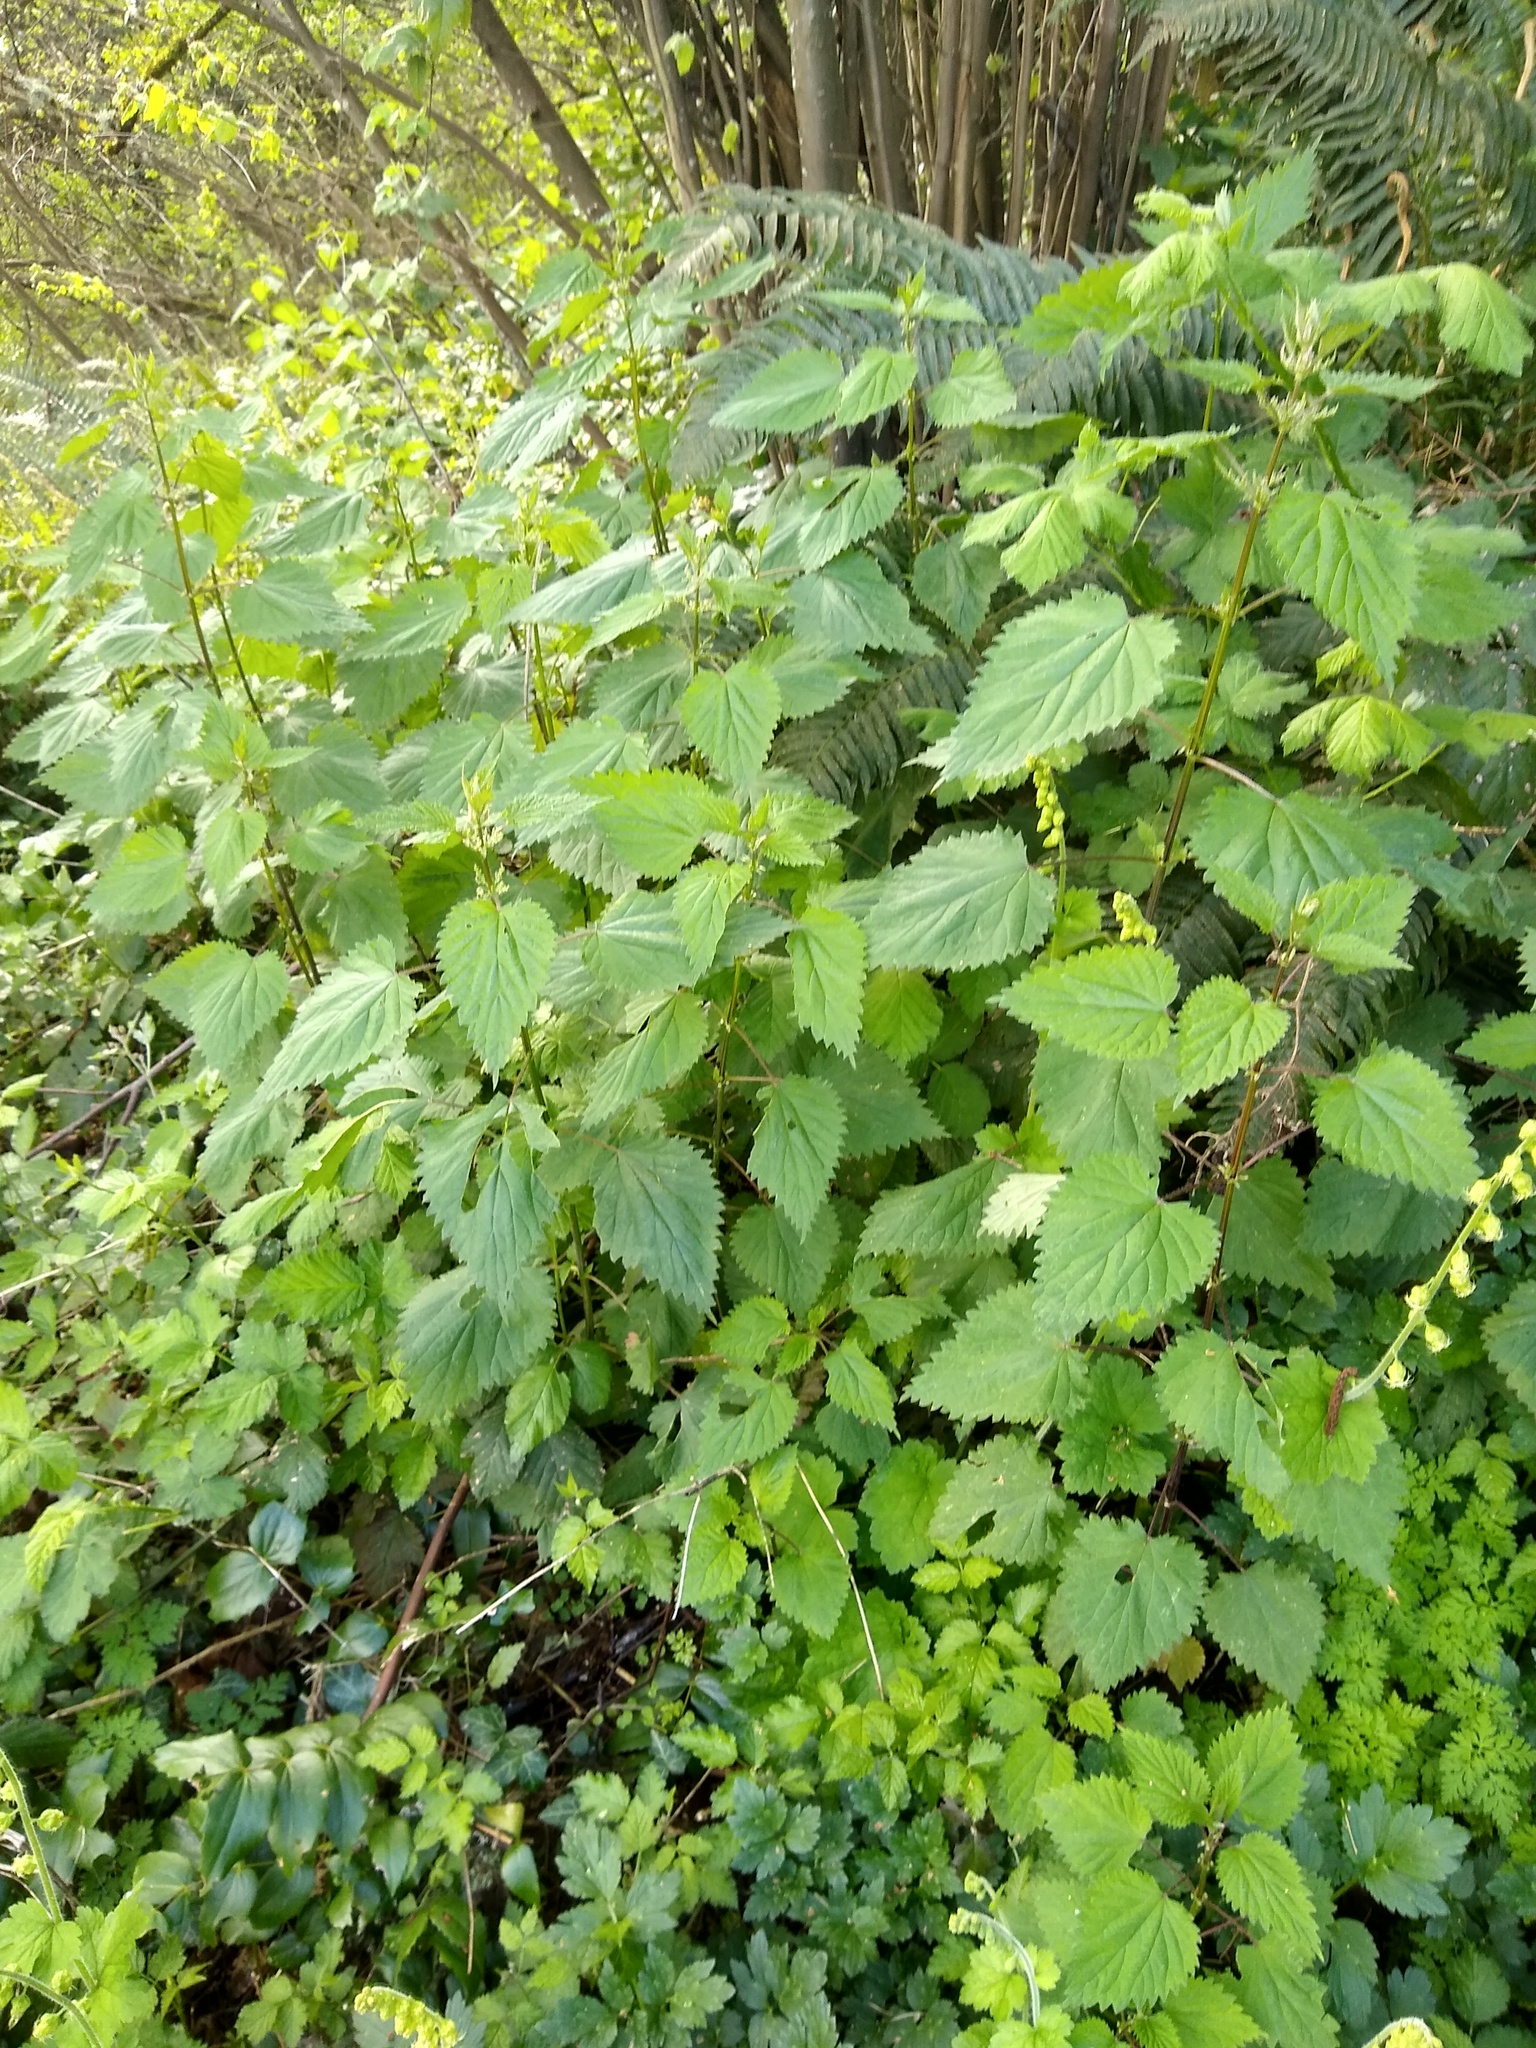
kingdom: Plantae
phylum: Tracheophyta
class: Magnoliopsida
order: Rosales
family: Urticaceae
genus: Urtica
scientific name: Urtica dioica
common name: Common nettle
